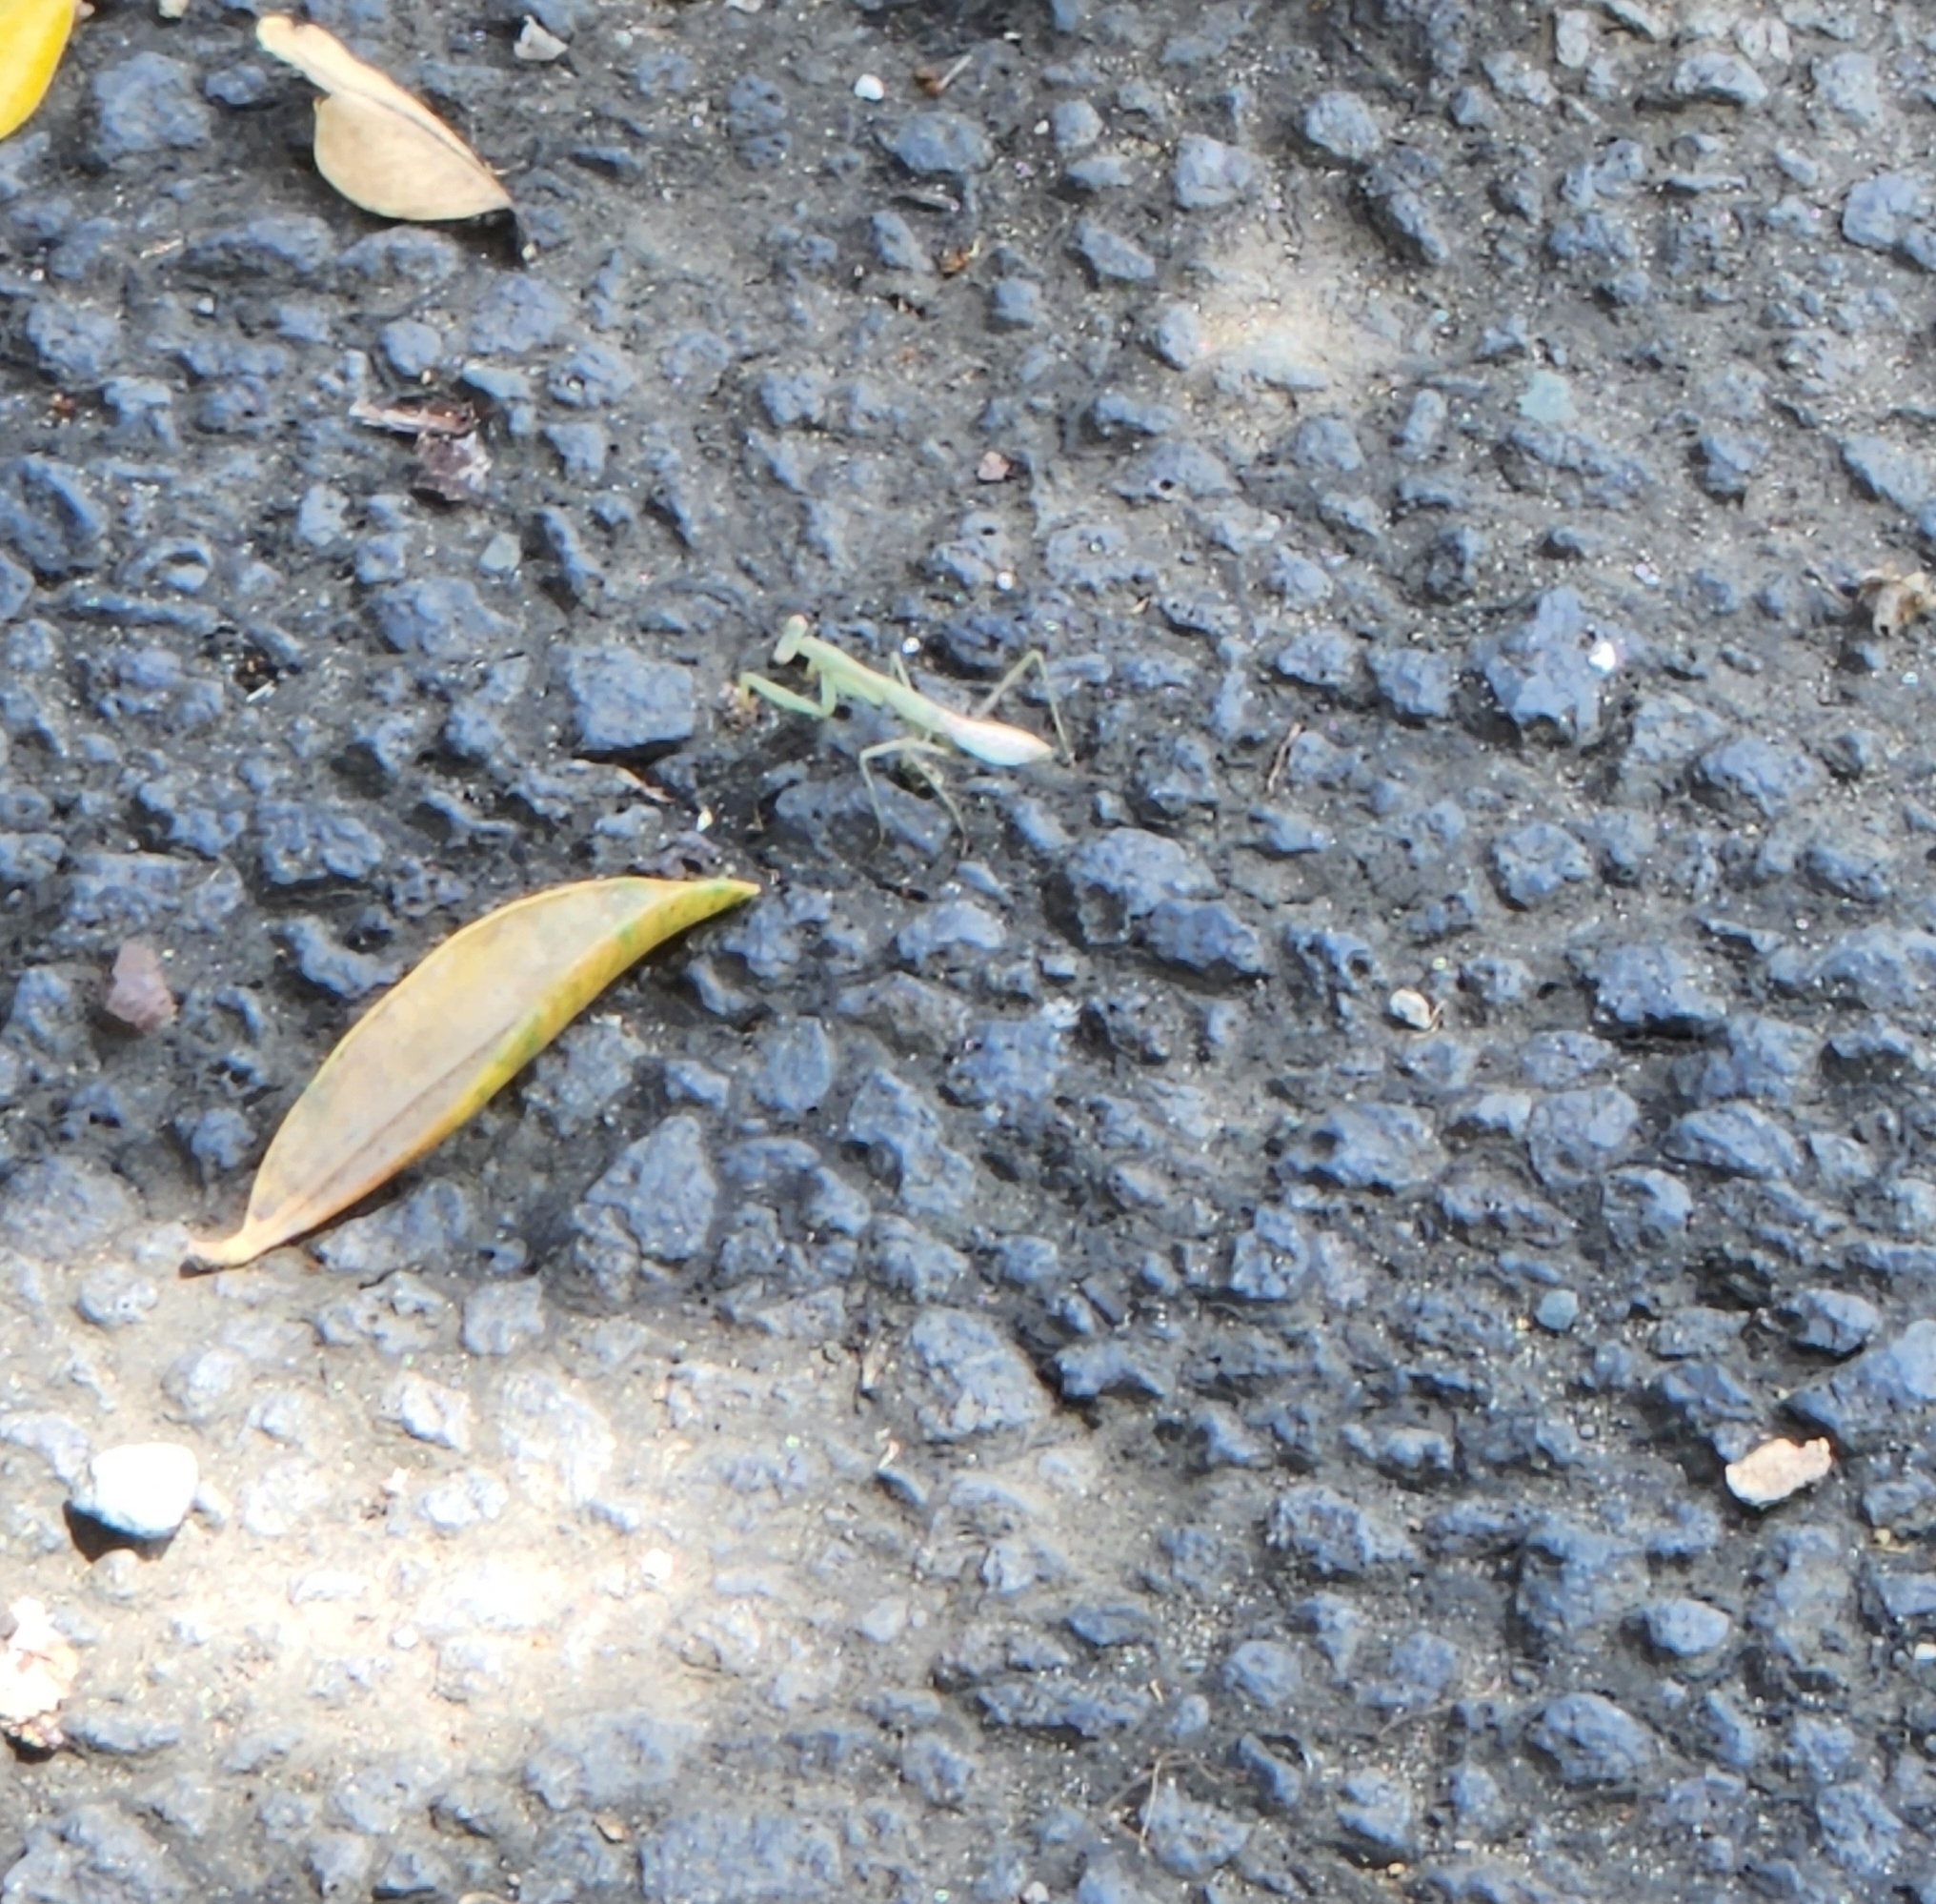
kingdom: Animalia
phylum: Arthropoda
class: Insecta
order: Mantodea
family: Miomantidae
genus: Miomantis
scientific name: Miomantis caffra
